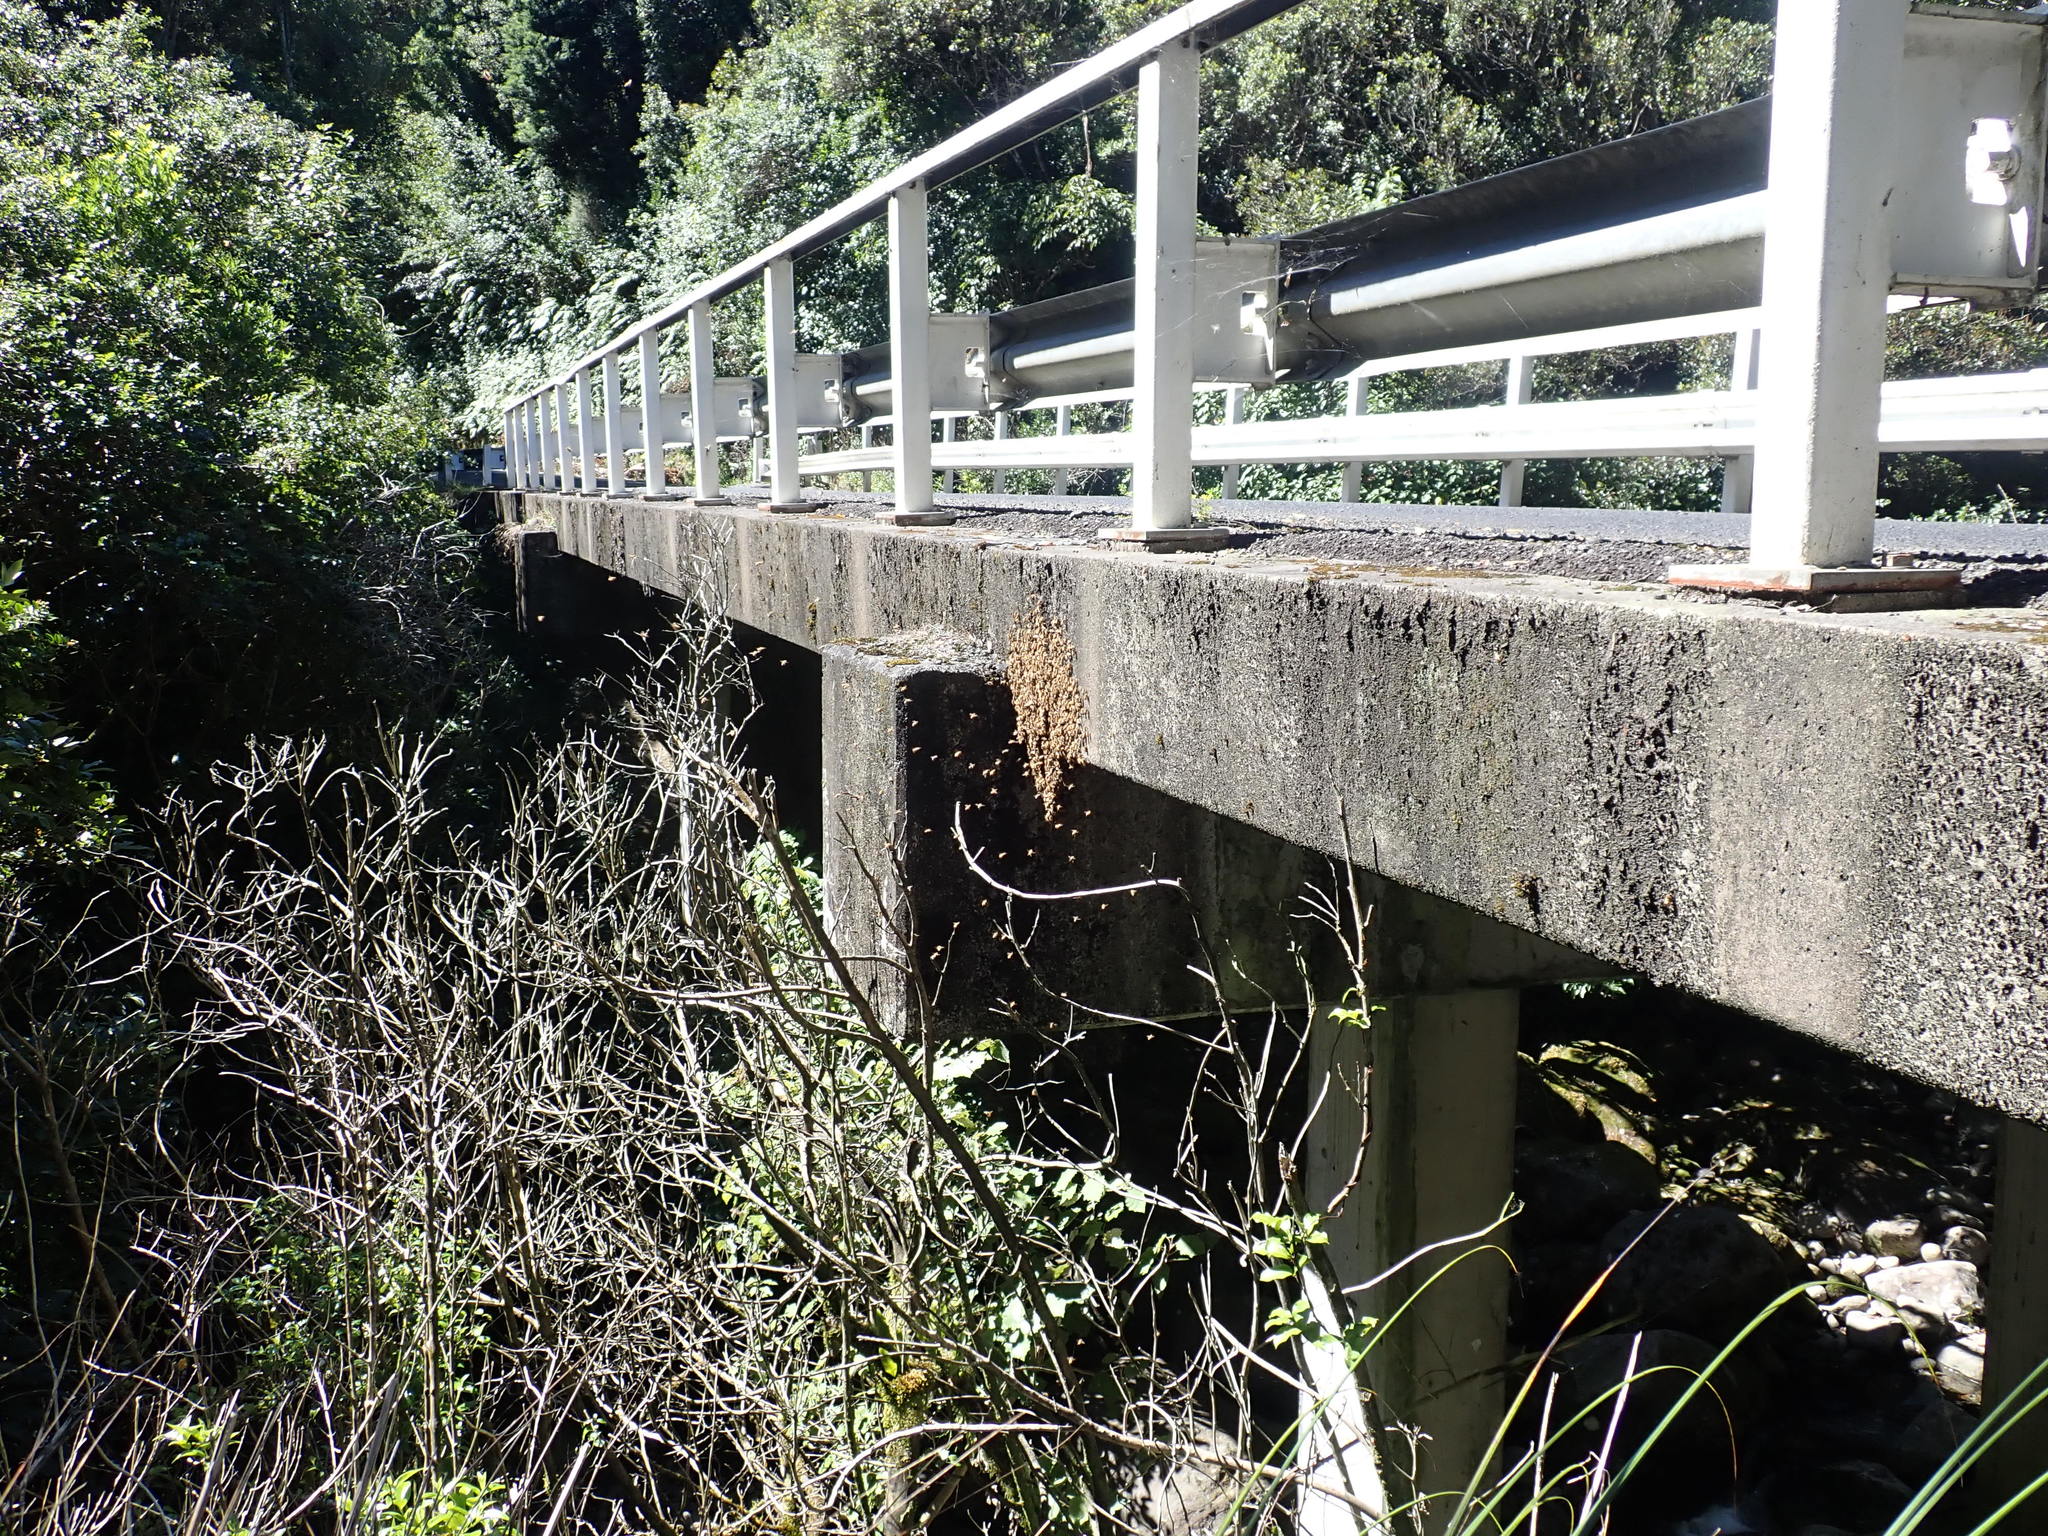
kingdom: Animalia
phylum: Arthropoda
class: Insecta
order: Hymenoptera
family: Apidae
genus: Apis
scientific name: Apis mellifera
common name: Honey bee
